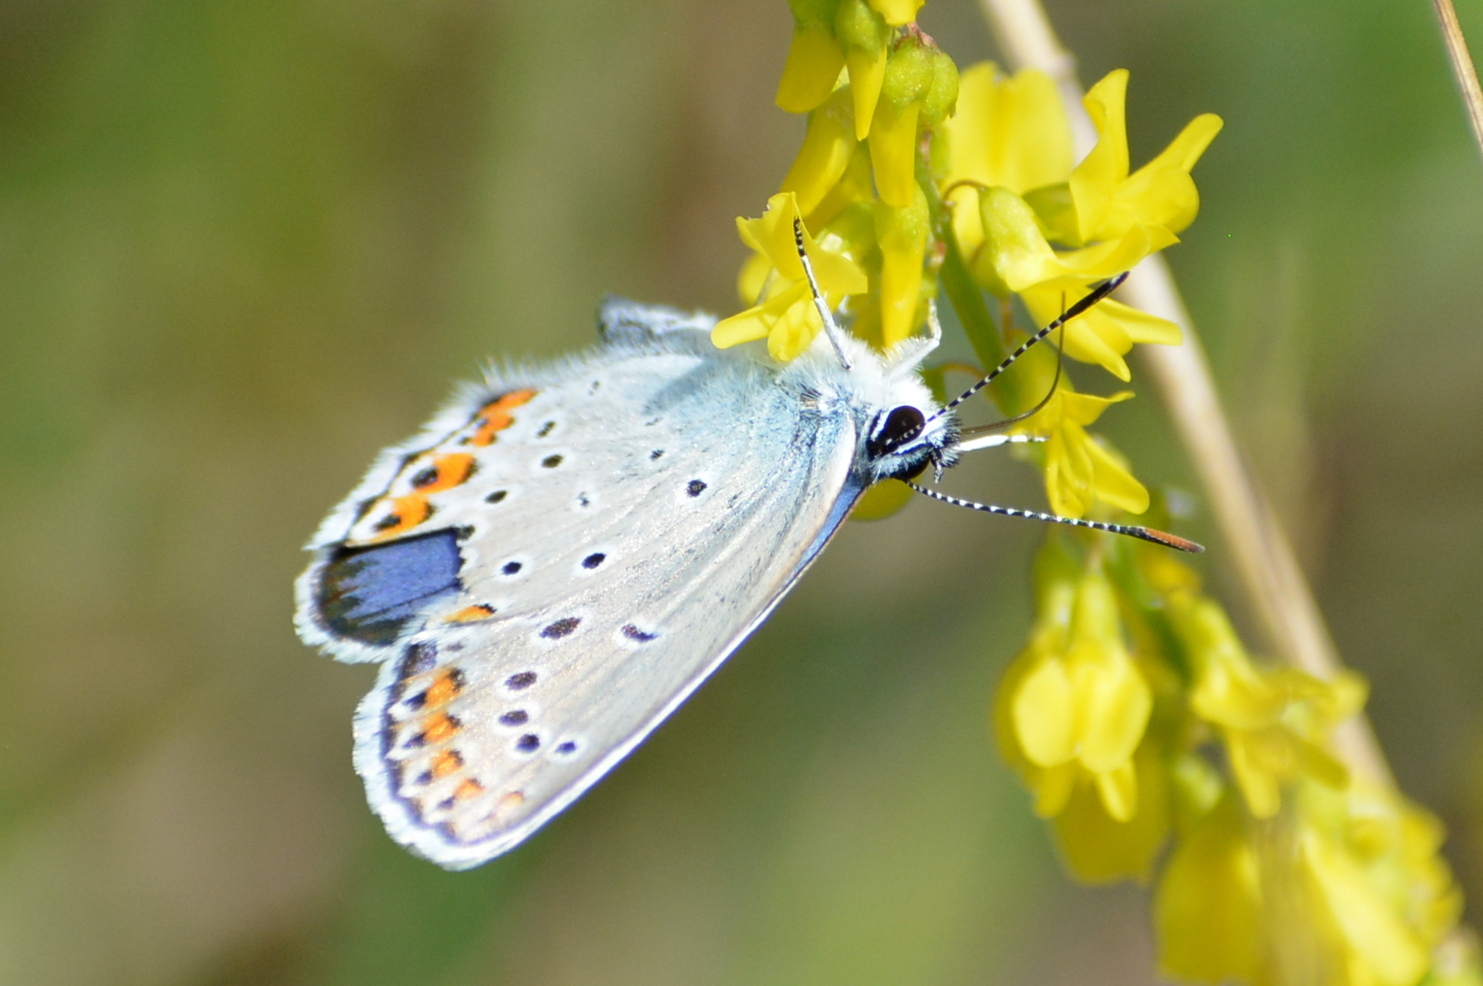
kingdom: Animalia
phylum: Arthropoda
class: Insecta
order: Lepidoptera
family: Lycaenidae
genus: Plebejus
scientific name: Plebejus argyrognomon
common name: Reverdin's blue
